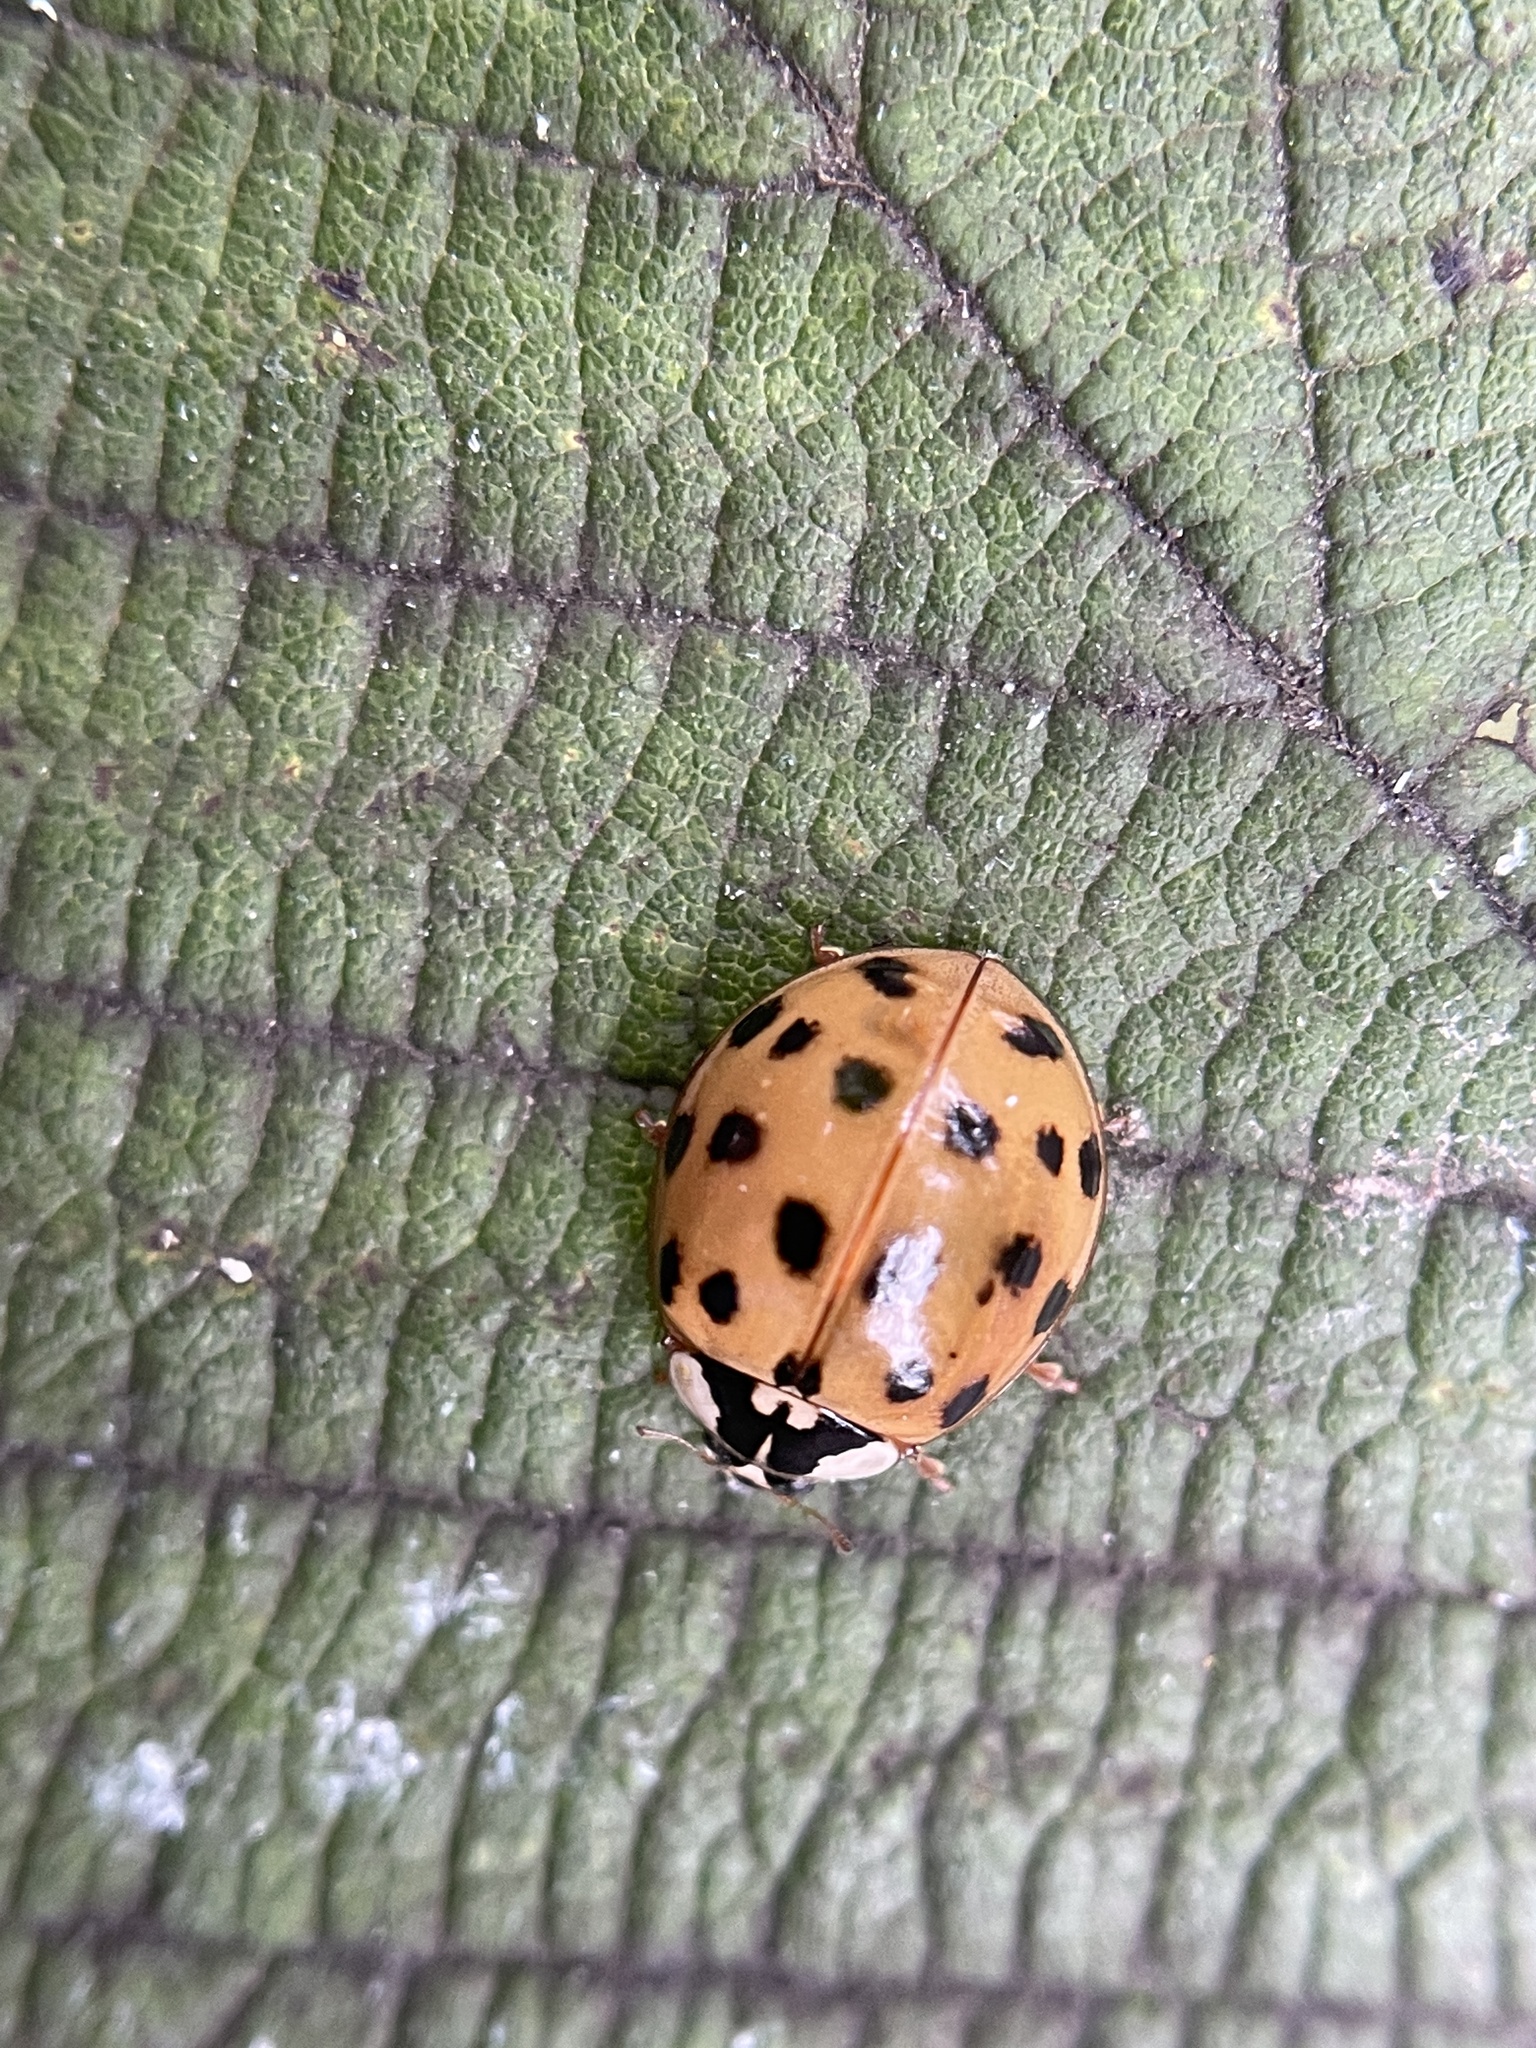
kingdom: Animalia
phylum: Arthropoda
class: Insecta
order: Coleoptera
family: Coccinellidae
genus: Harmonia
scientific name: Harmonia axyridis
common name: Harlequin ladybird
